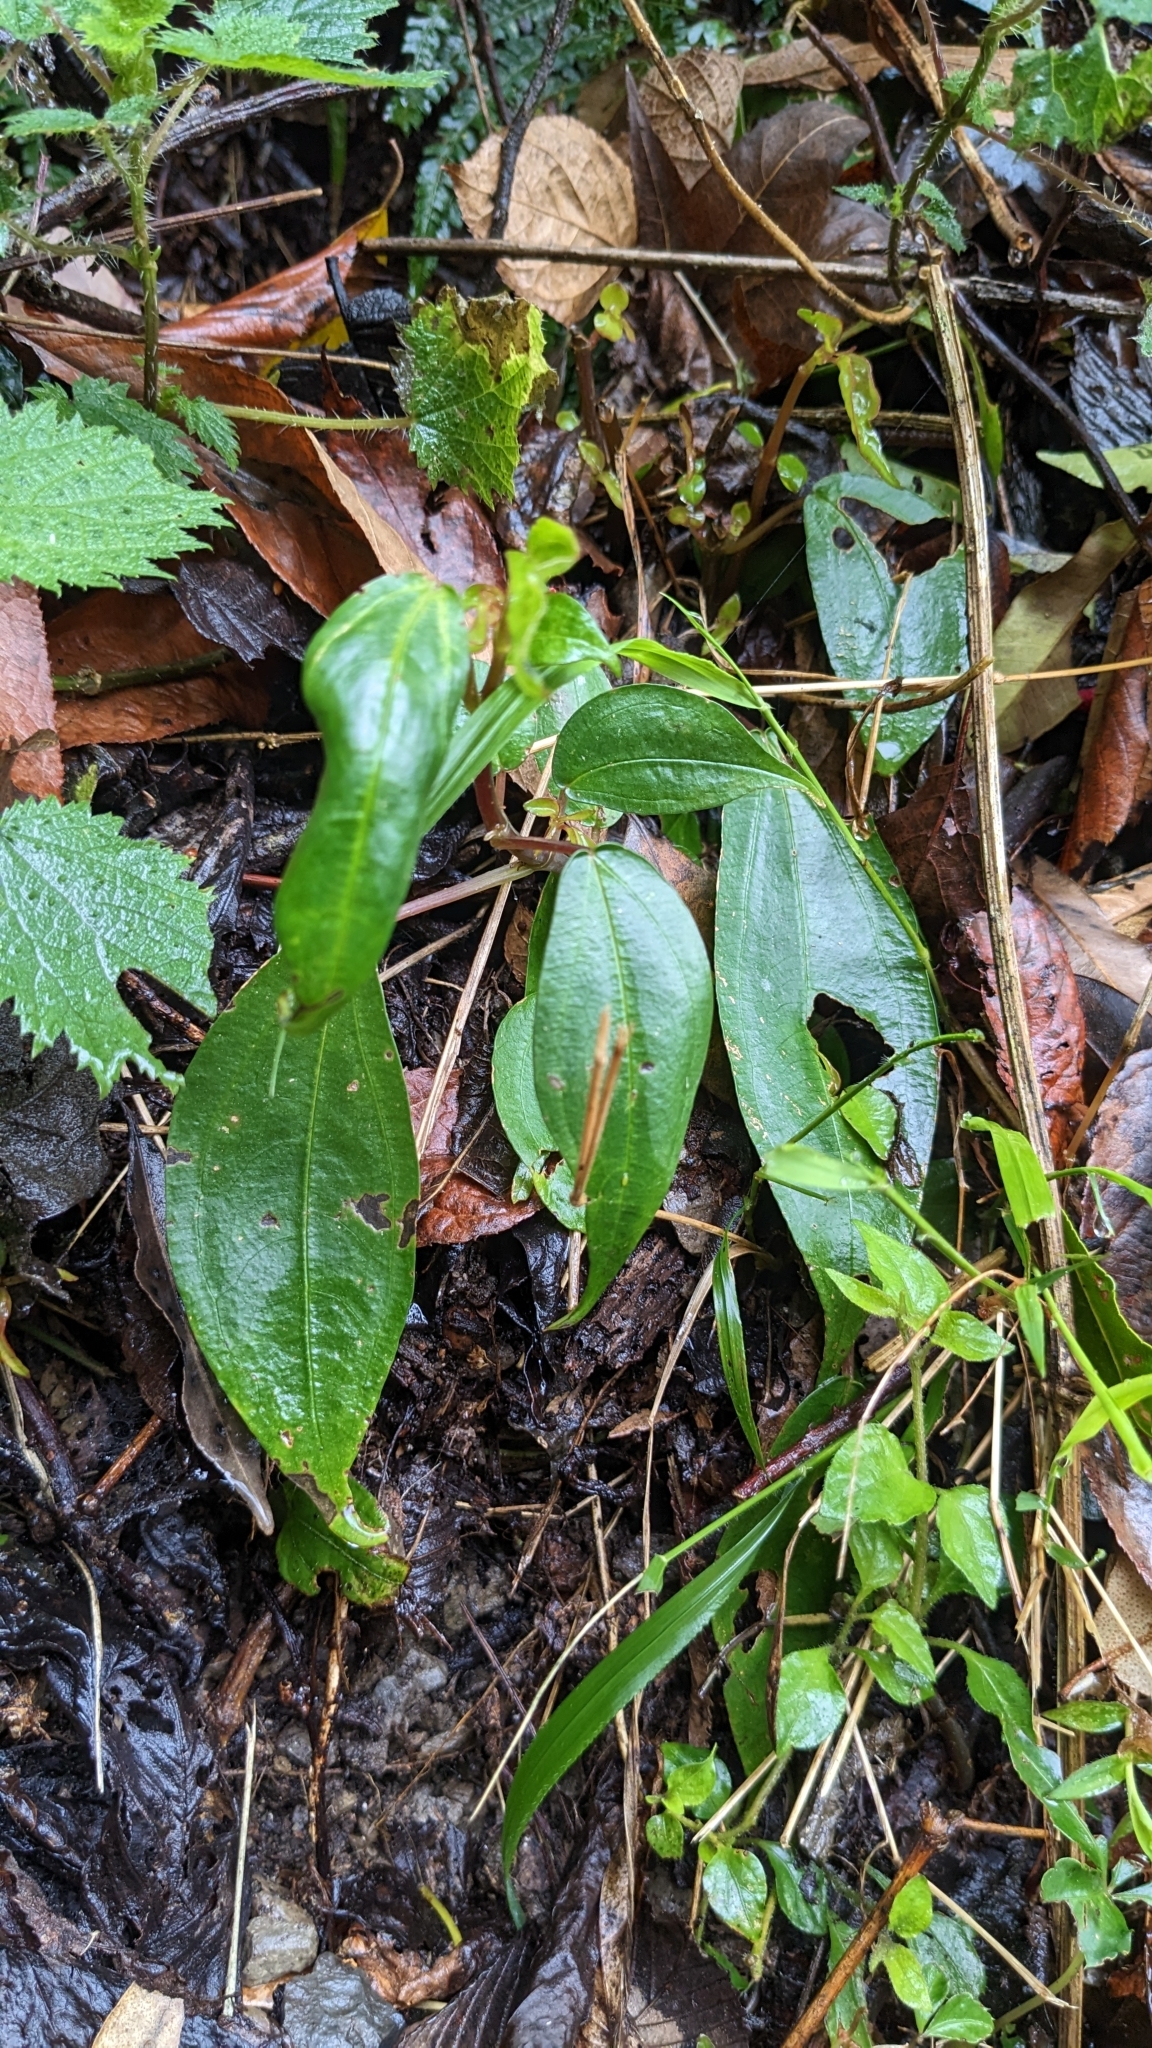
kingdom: Plantae
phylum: Tracheophyta
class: Magnoliopsida
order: Rosales
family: Urticaceae
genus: Pilea
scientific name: Pilea plataniflora
